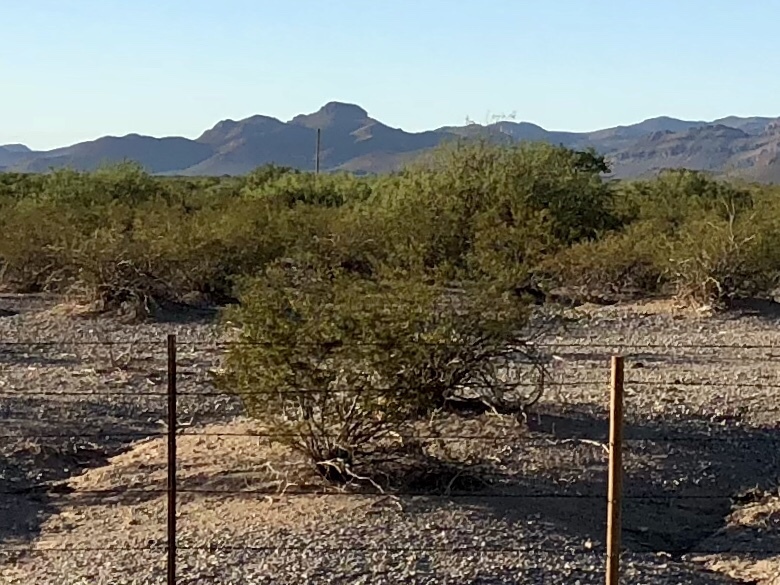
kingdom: Plantae
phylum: Tracheophyta
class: Magnoliopsida
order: Zygophyllales
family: Zygophyllaceae
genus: Larrea
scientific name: Larrea tridentata
